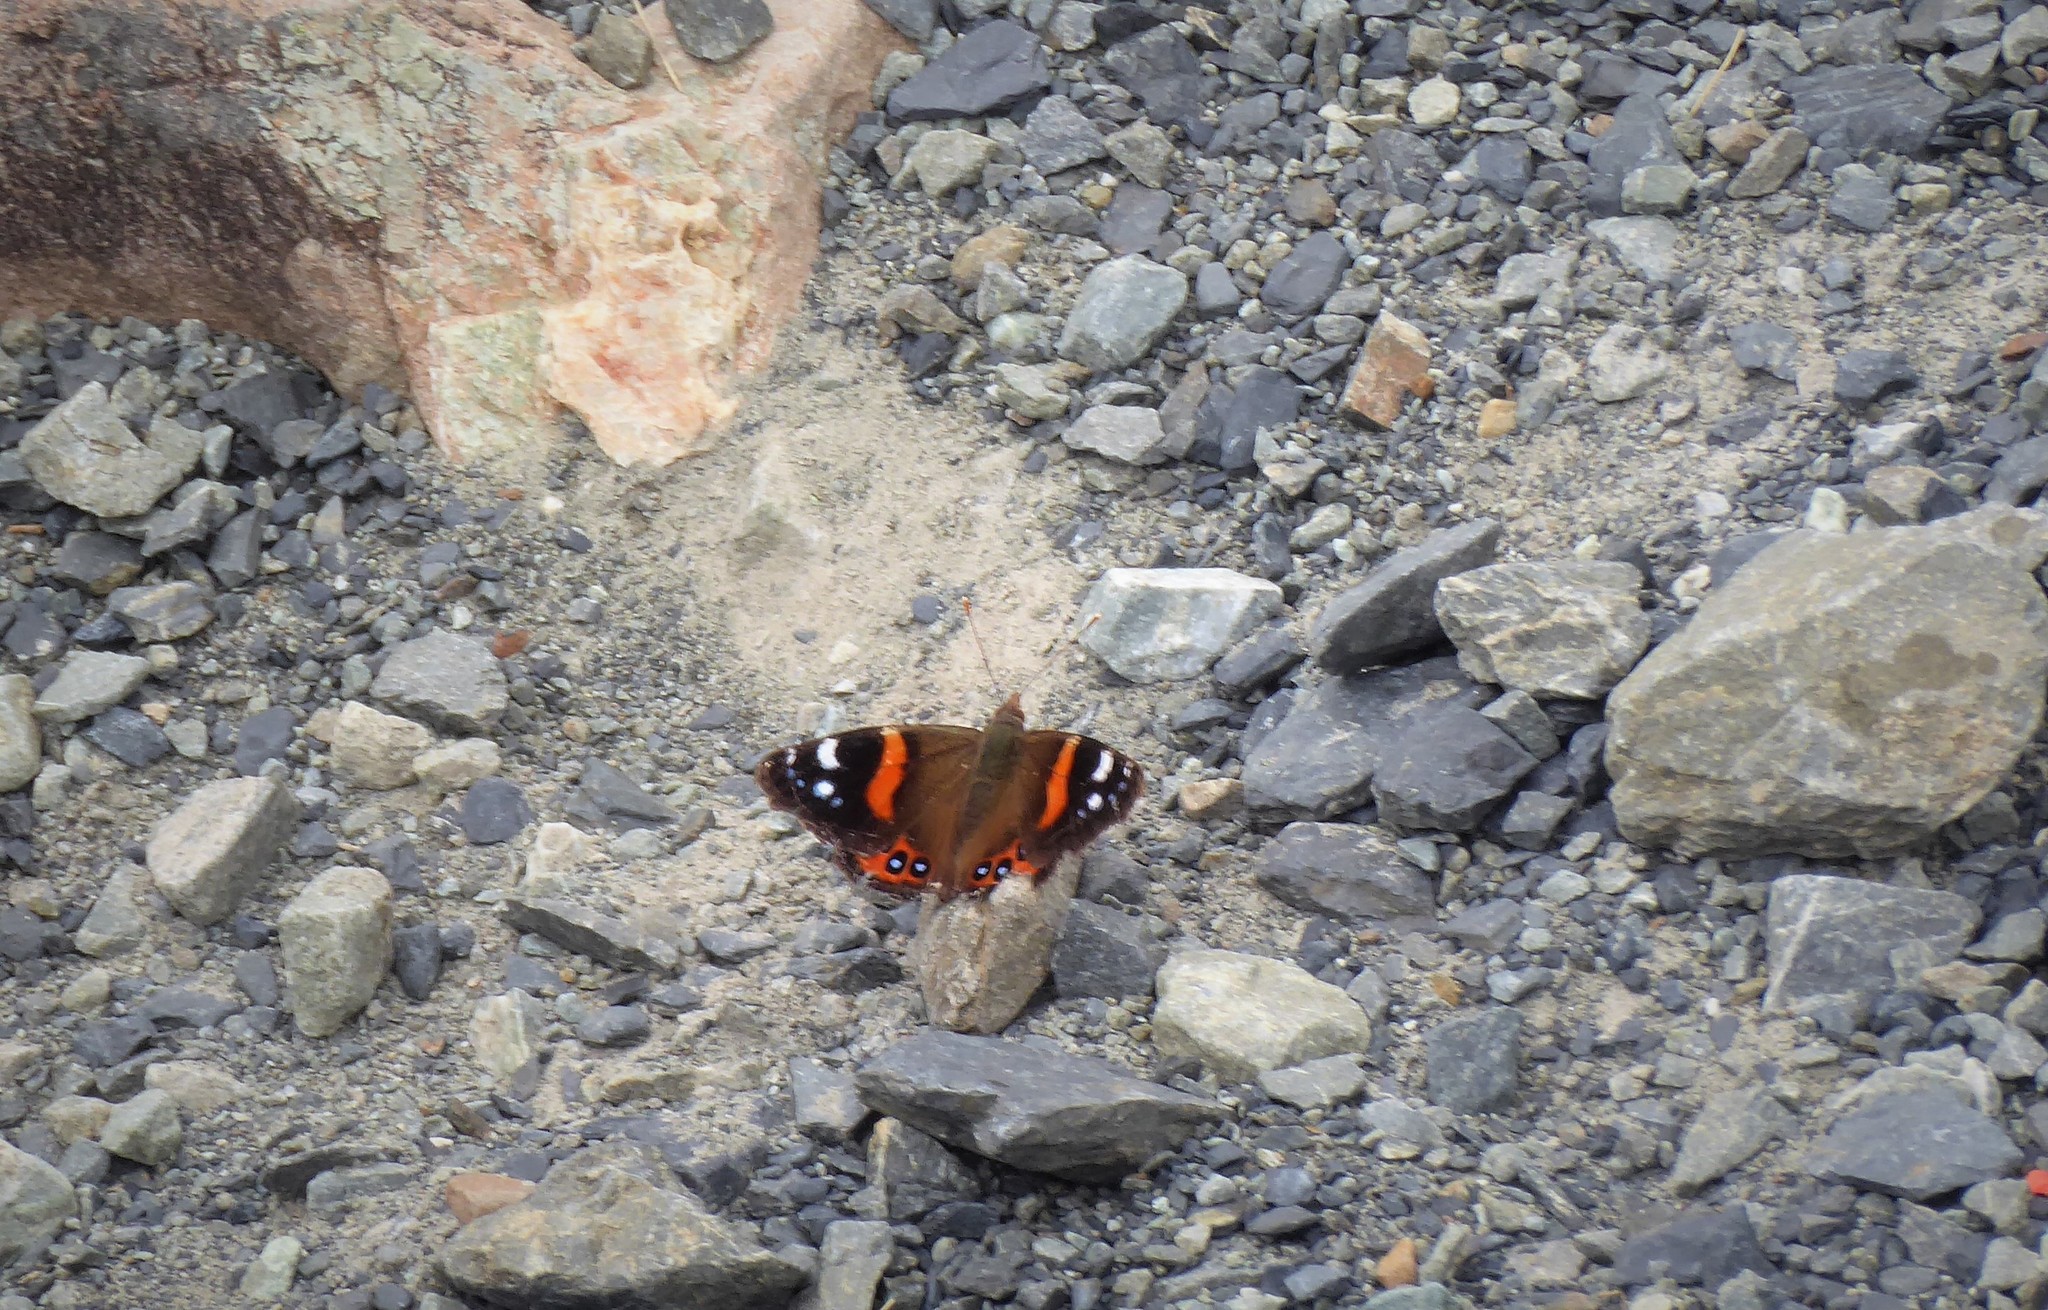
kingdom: Animalia
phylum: Arthropoda
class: Insecta
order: Lepidoptera
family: Nymphalidae
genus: Vanessa
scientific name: Vanessa gonerilla
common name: New zealand red admiral
